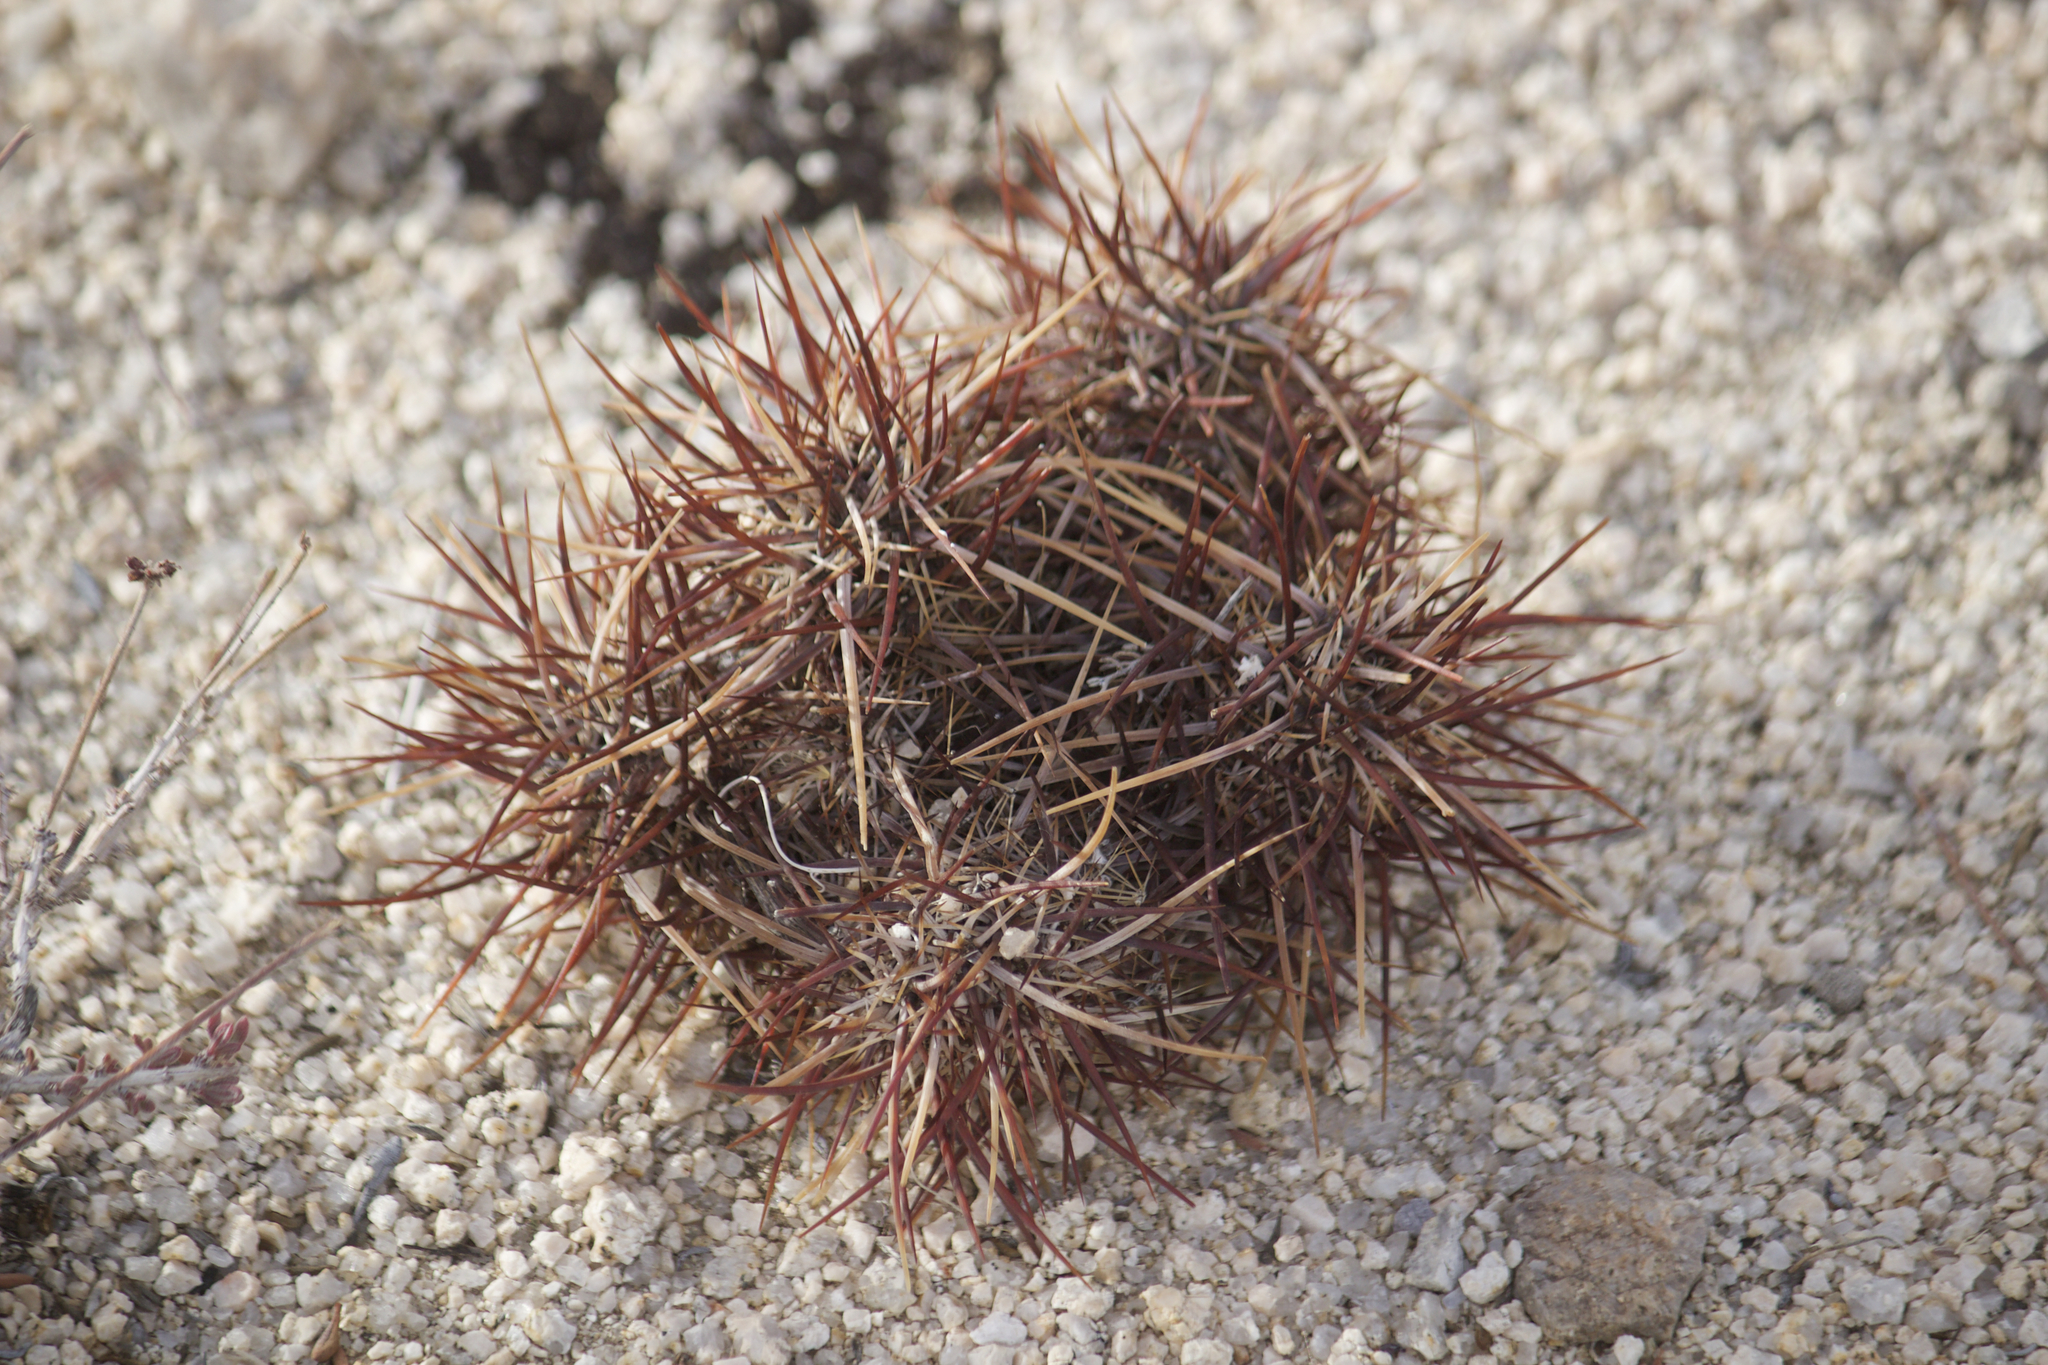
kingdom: Plantae
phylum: Tracheophyta
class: Magnoliopsida
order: Caryophyllales
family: Cactaceae
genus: Echinocereus
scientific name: Echinocereus engelmannii
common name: Engelmann's hedgehog cactus
